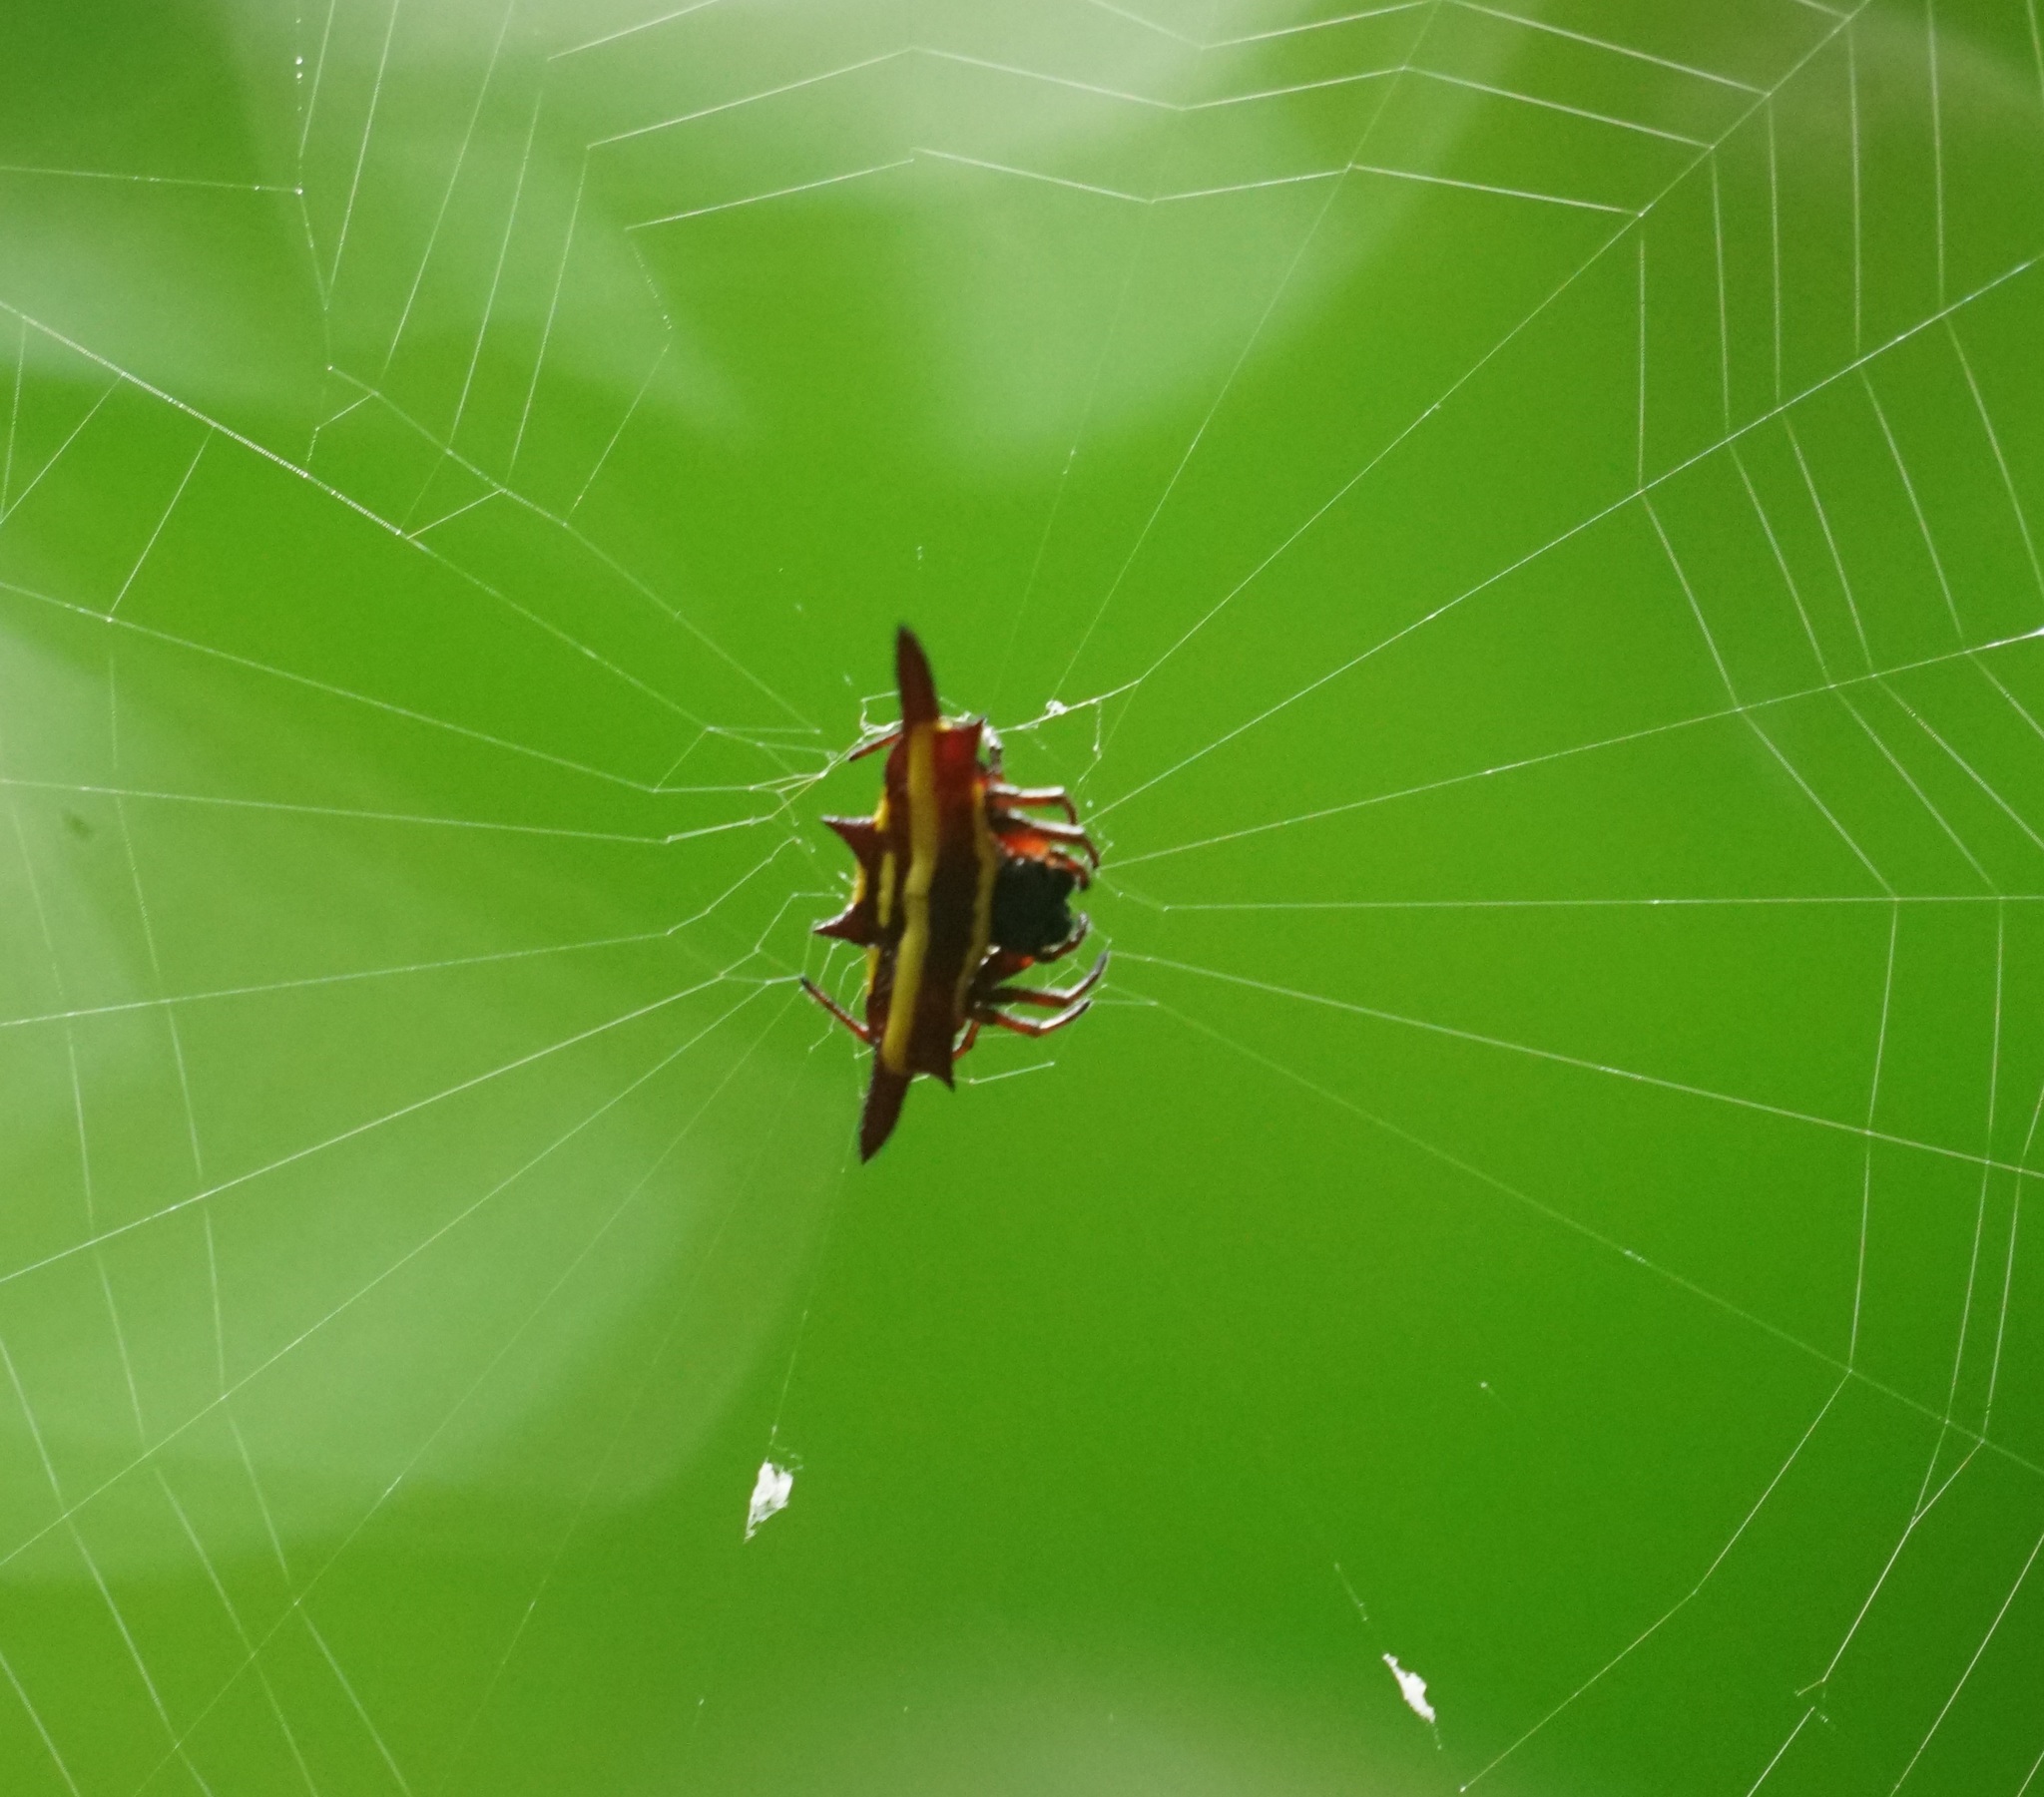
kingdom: Animalia
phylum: Arthropoda
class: Arachnida
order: Araneae
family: Araneidae
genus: Gasteracantha
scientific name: Gasteracantha fornicata
